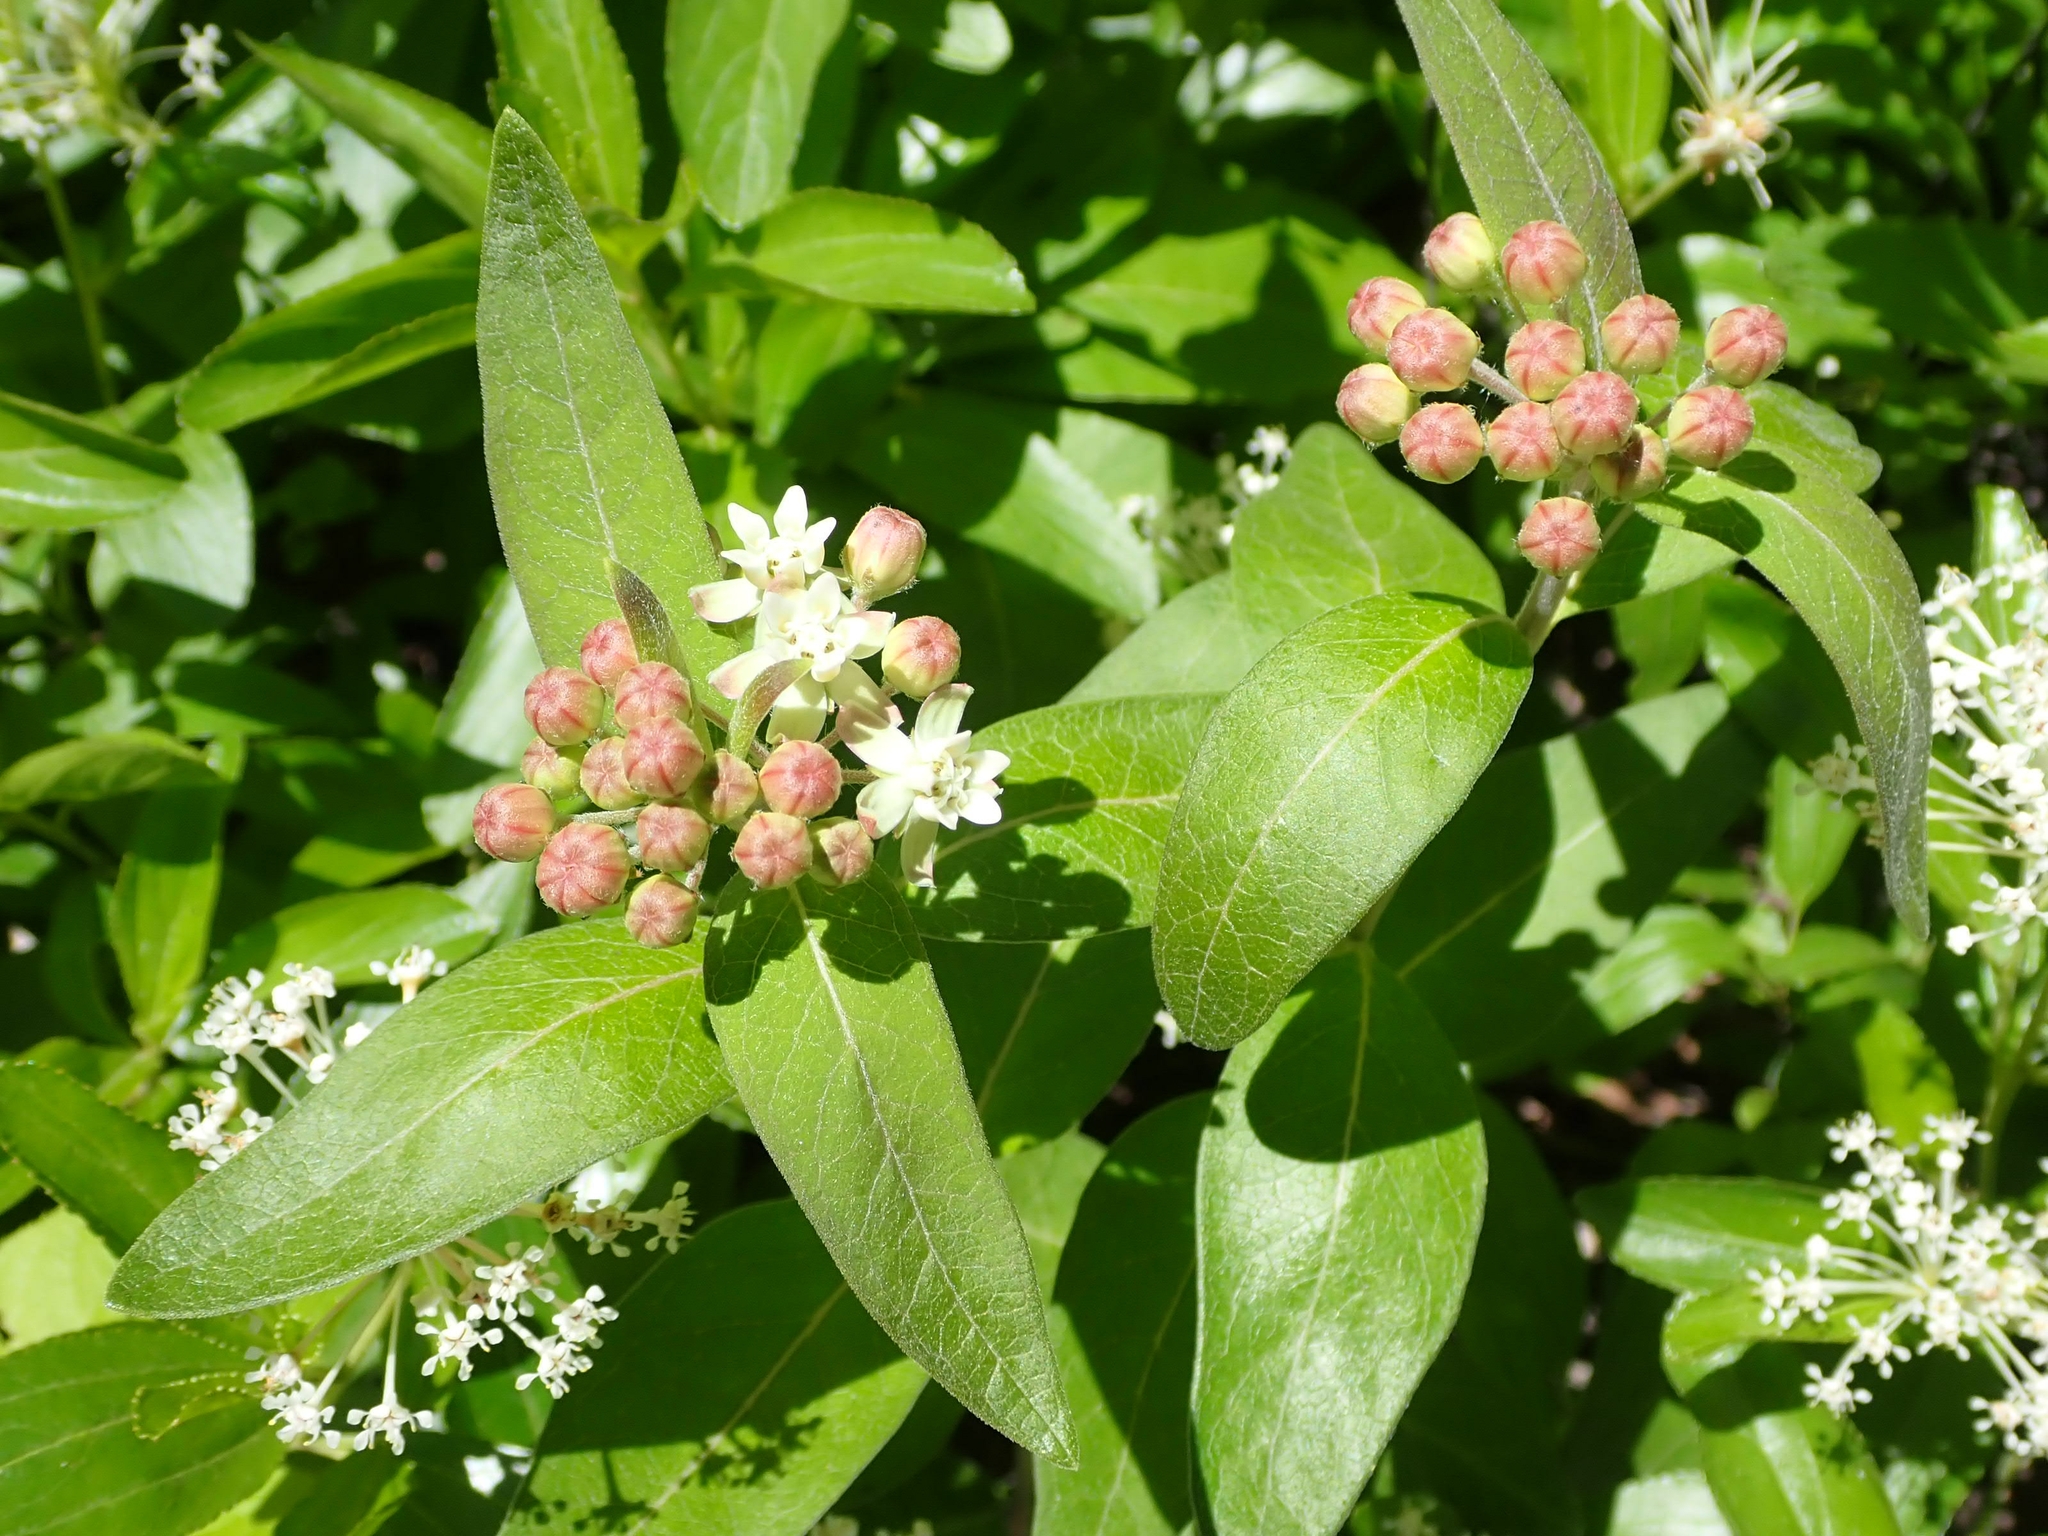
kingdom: Plantae
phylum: Tracheophyta
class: Magnoliopsida
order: Gentianales
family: Apocynaceae
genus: Asclepias
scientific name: Asclepias ovalifolia
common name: Dwarf milkweed
